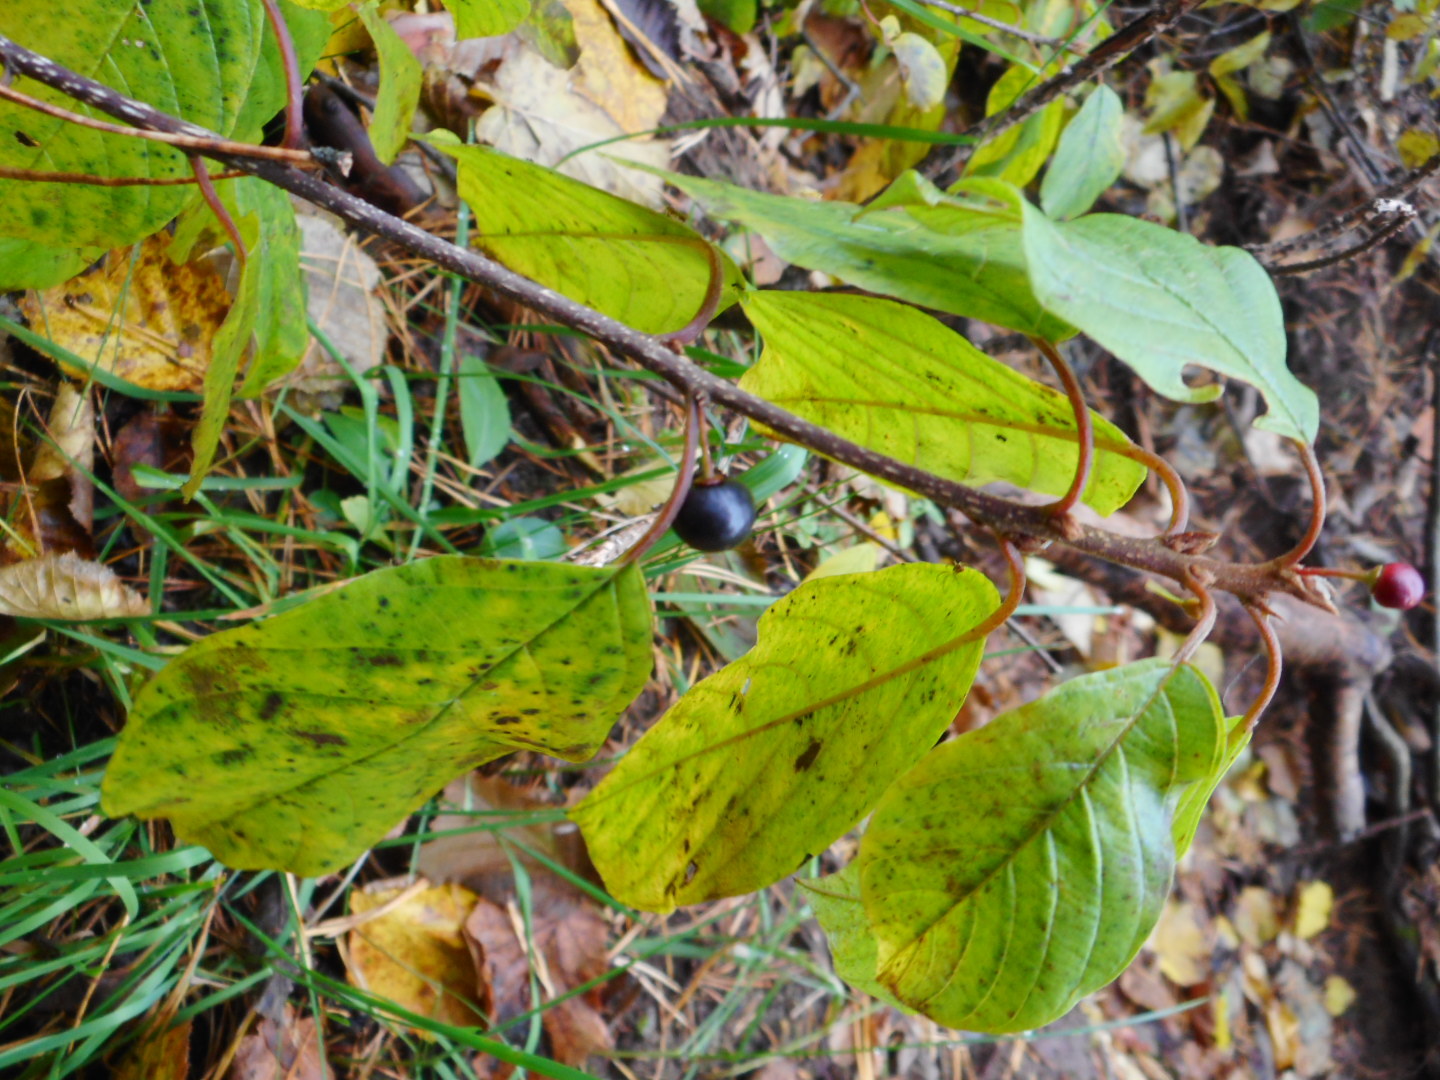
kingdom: Plantae
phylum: Tracheophyta
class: Magnoliopsida
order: Rosales
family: Rhamnaceae
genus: Frangula
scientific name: Frangula alnus
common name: Alder buckthorn
